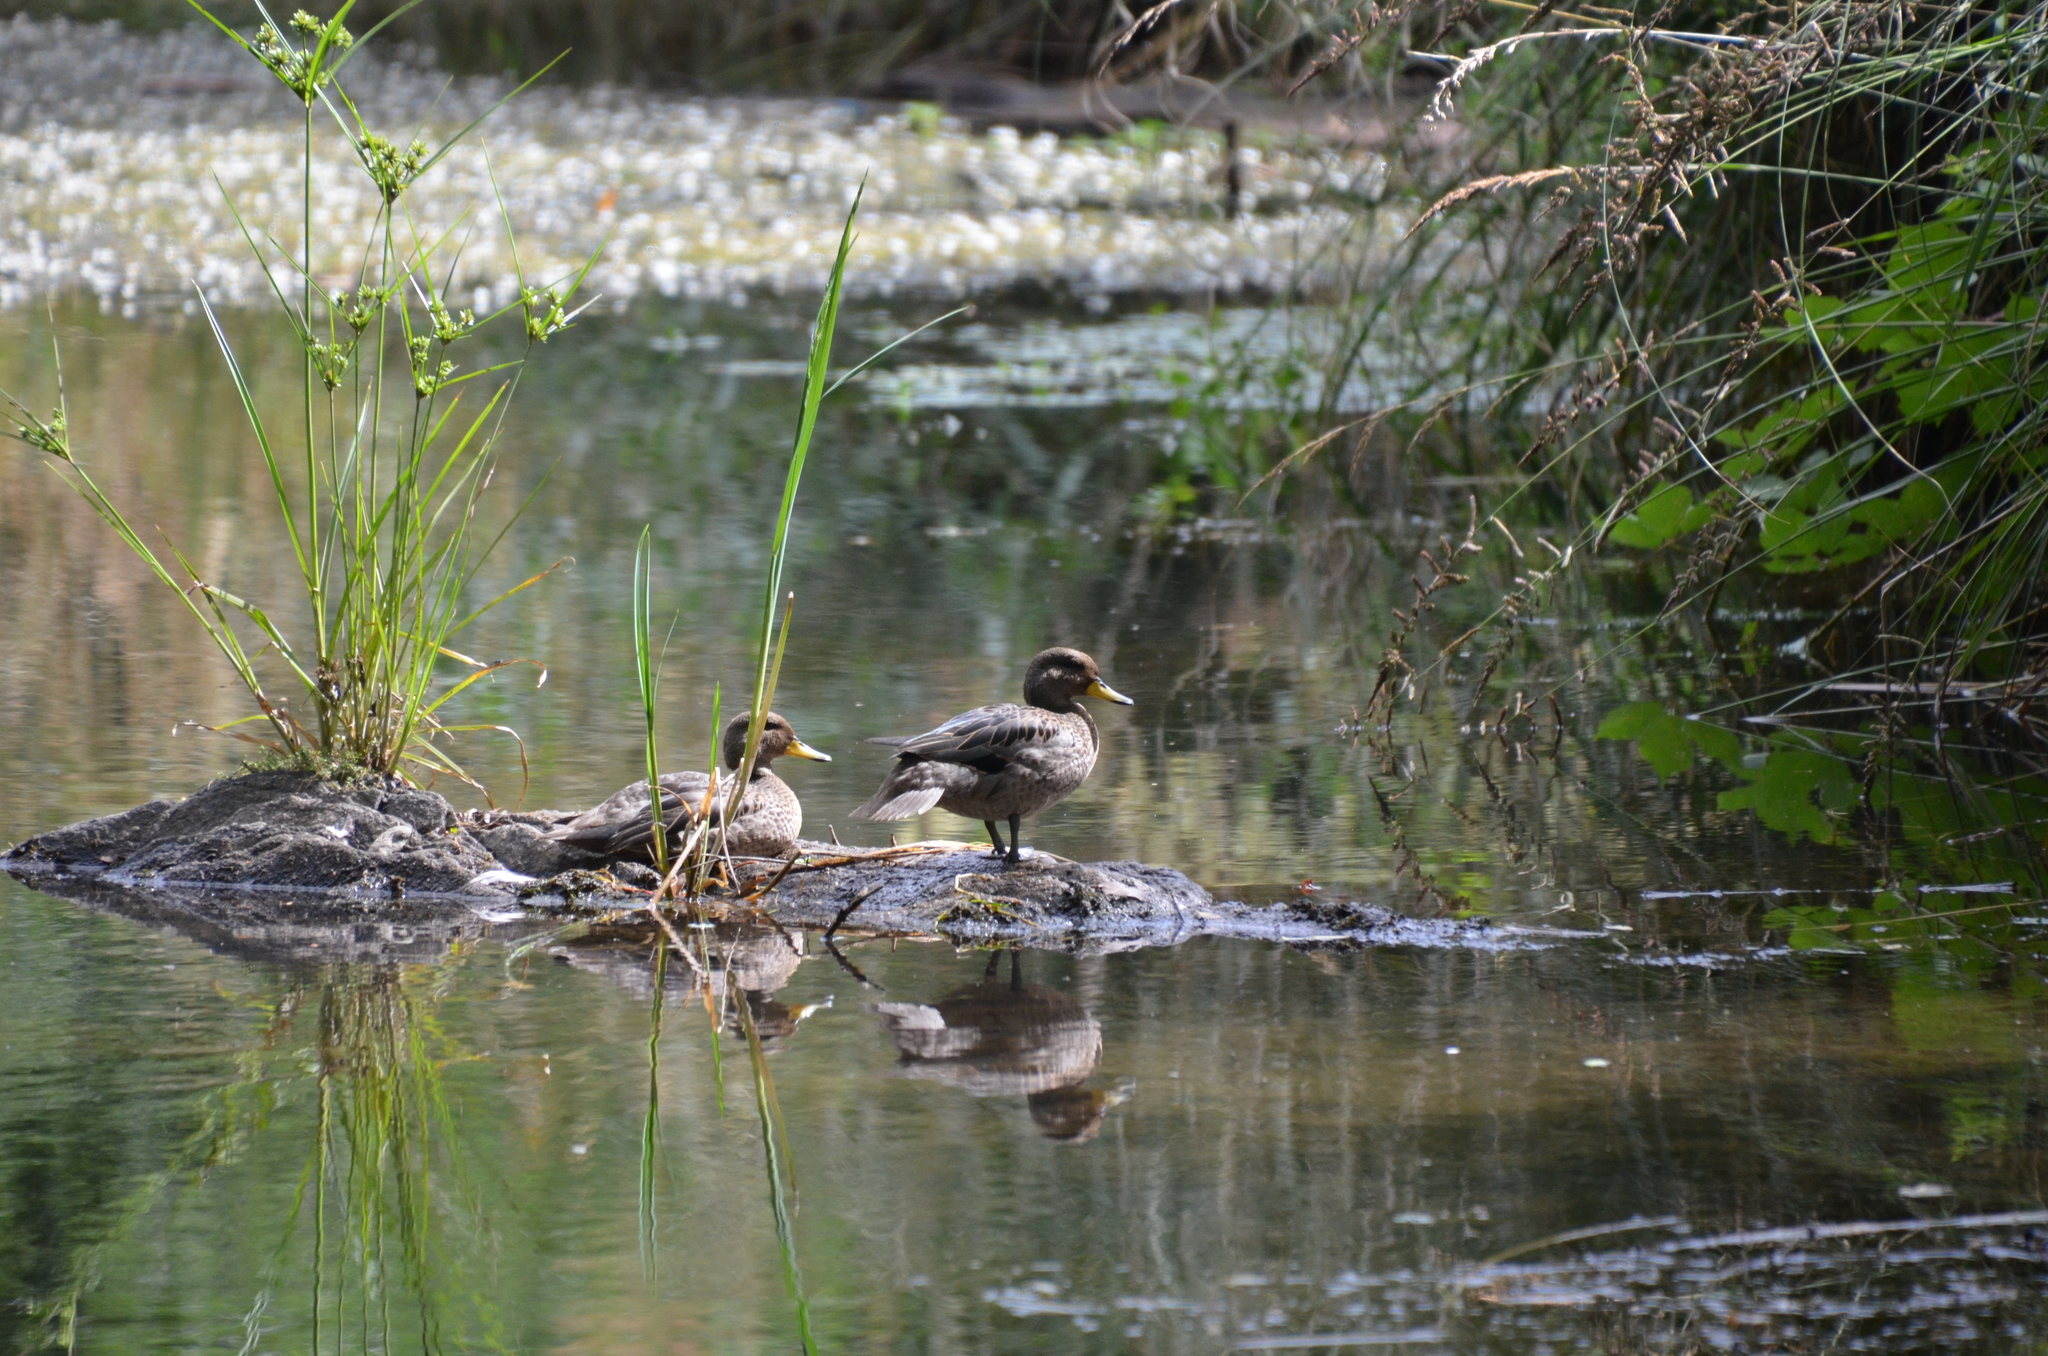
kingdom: Animalia
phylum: Chordata
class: Aves
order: Anseriformes
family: Anatidae
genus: Anas
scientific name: Anas flavirostris
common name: Yellow-billed teal
